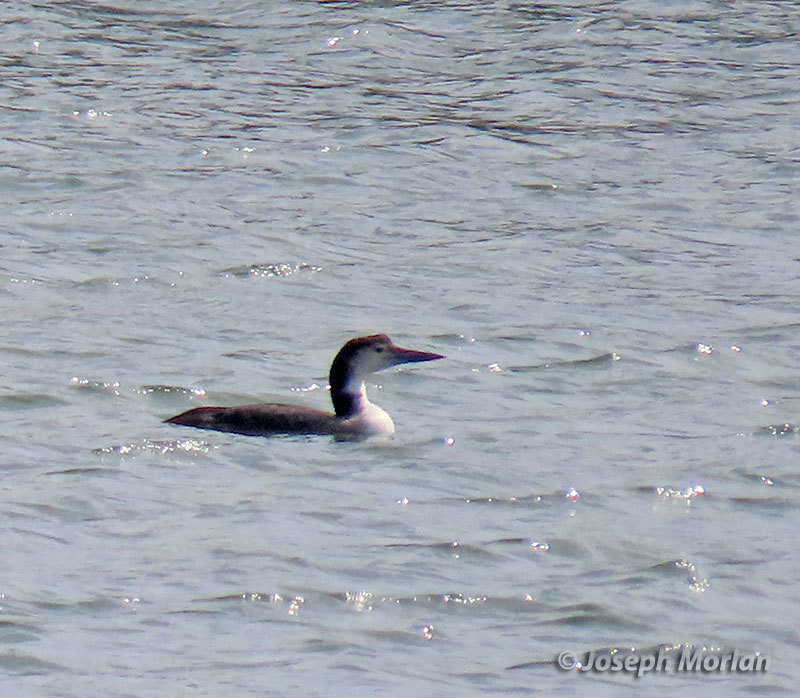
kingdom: Animalia
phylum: Chordata
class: Aves
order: Gaviiformes
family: Gaviidae
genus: Gavia
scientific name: Gavia immer
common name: Common loon
